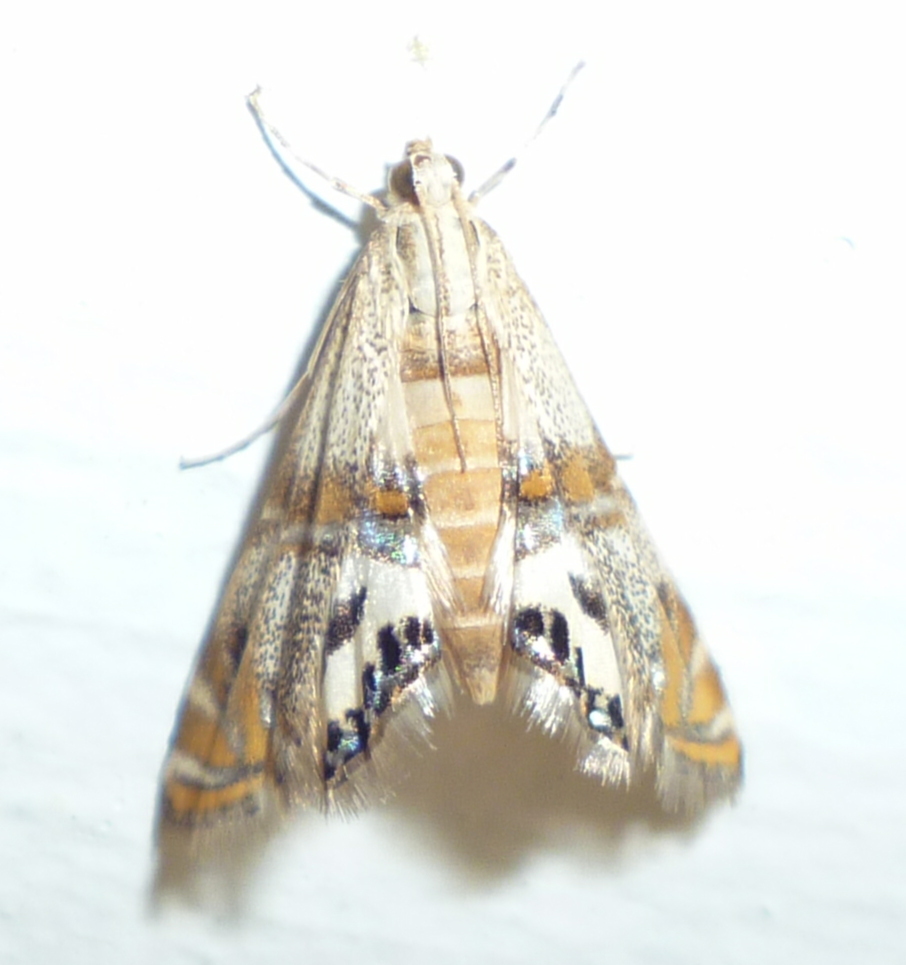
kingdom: Animalia
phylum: Arthropoda
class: Insecta
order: Lepidoptera
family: Crambidae
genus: Petrophila
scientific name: Petrophila bifascialis
